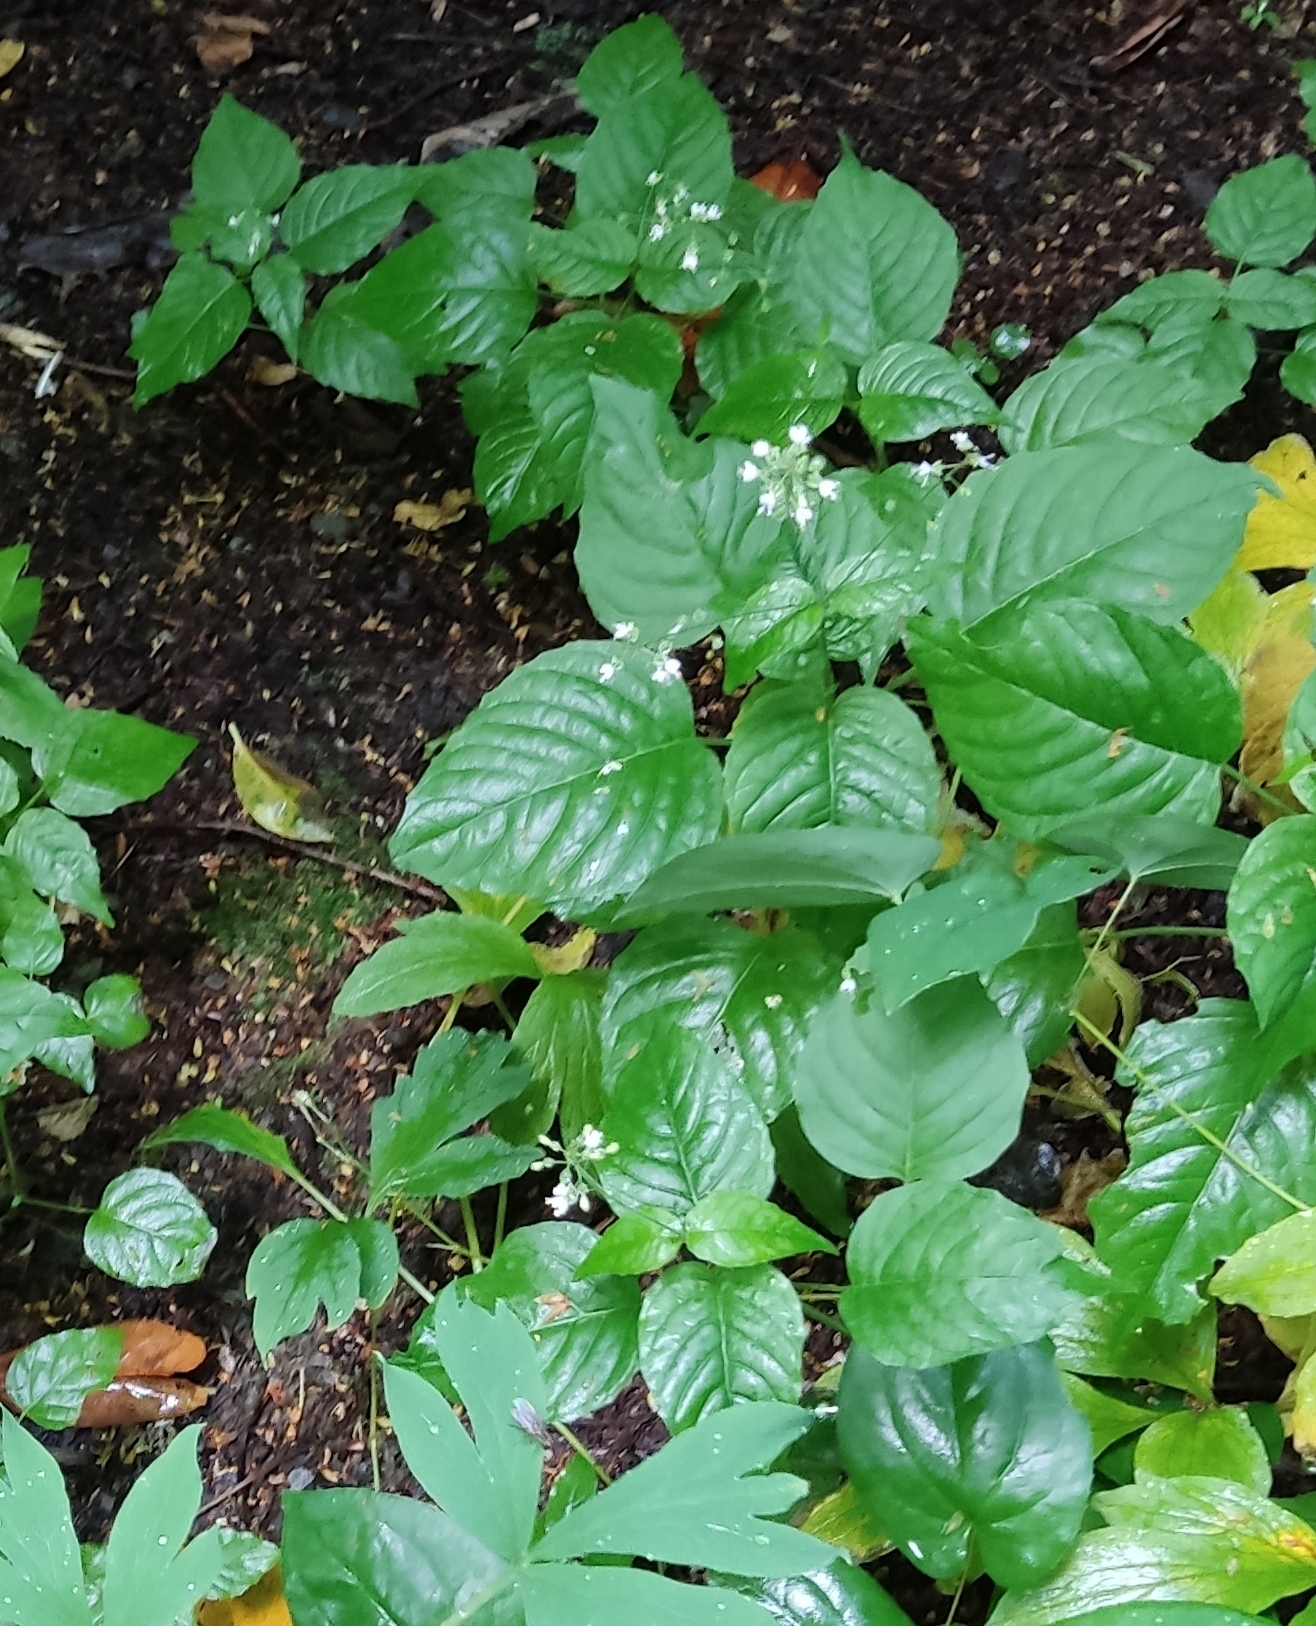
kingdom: Plantae
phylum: Tracheophyta
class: Magnoliopsida
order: Myrtales
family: Onagraceae
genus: Circaea
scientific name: Circaea lutetiana
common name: Enchanter's-nightshade
